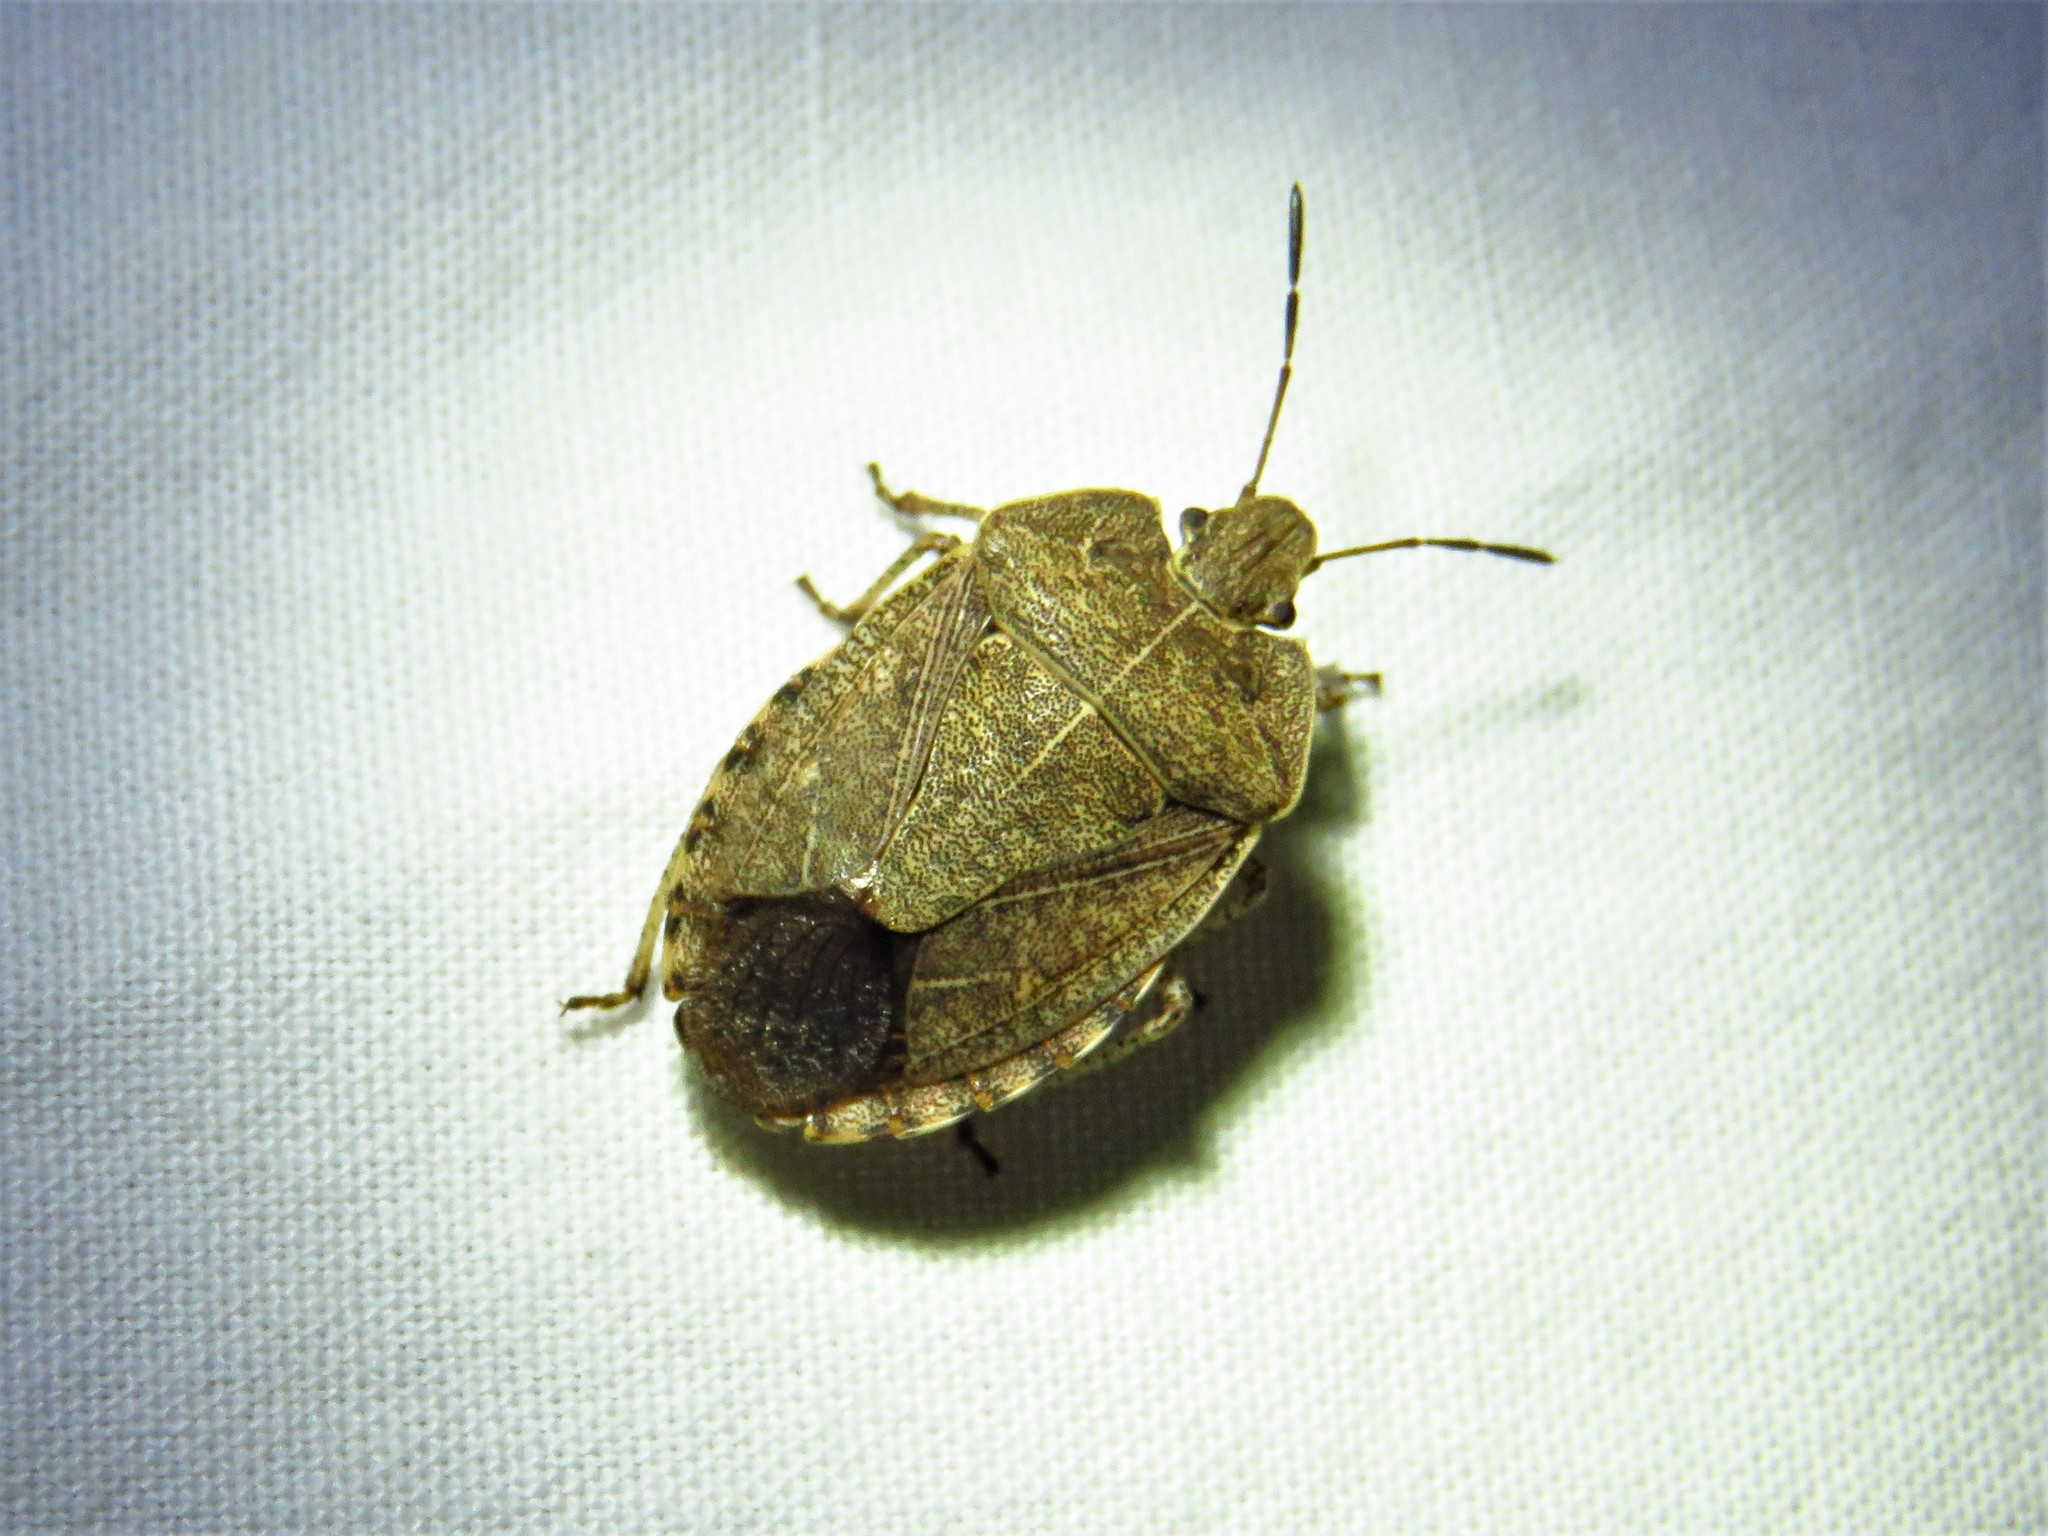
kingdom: Animalia
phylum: Arthropoda
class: Insecta
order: Hemiptera
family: Pentatomidae
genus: Menecles
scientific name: Menecles insertus
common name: Elf shoe stink bug
